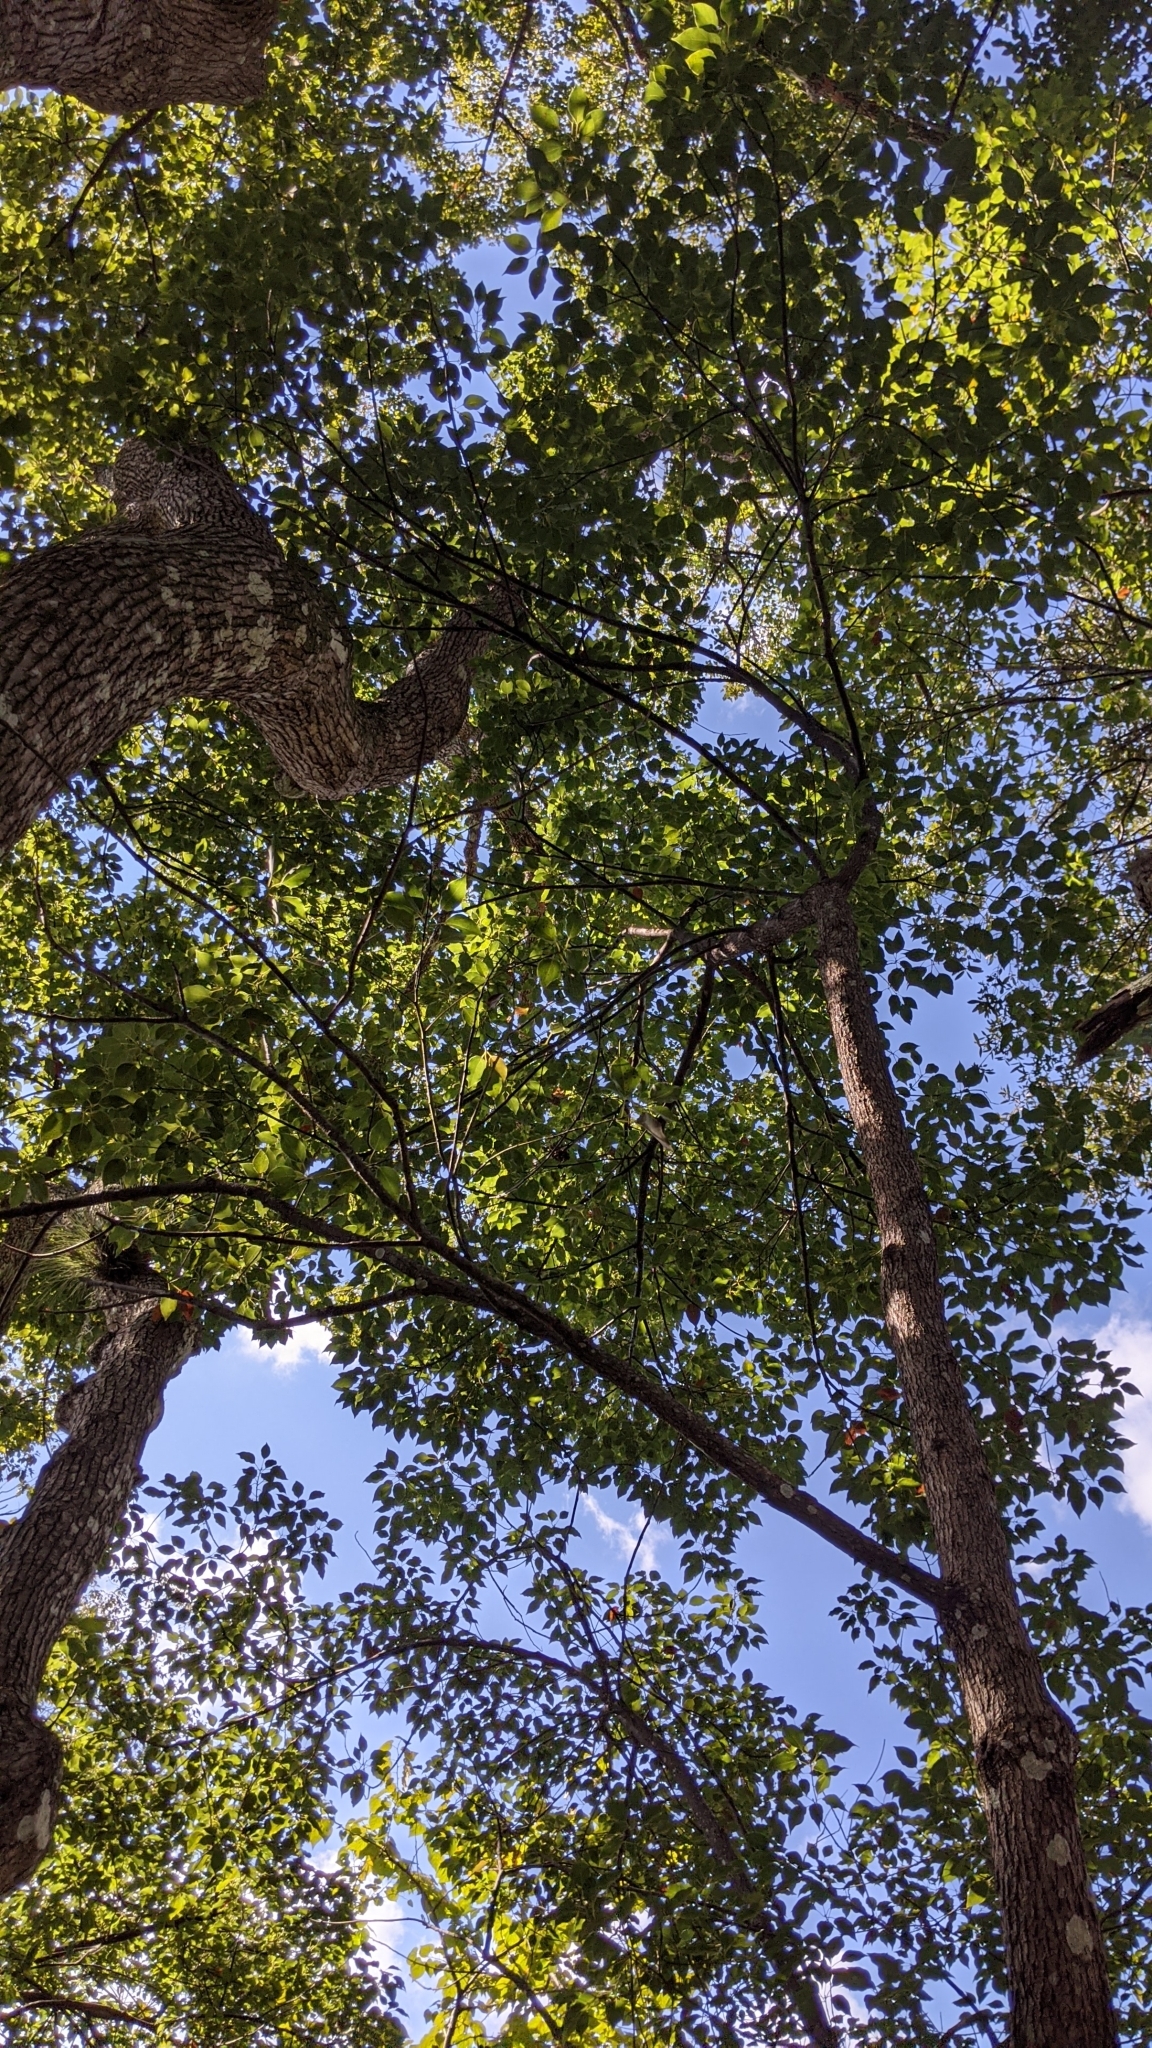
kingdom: Plantae
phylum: Tracheophyta
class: Magnoliopsida
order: Laurales
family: Lauraceae
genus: Cinnamomum
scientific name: Cinnamomum camphora
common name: Camphortree
